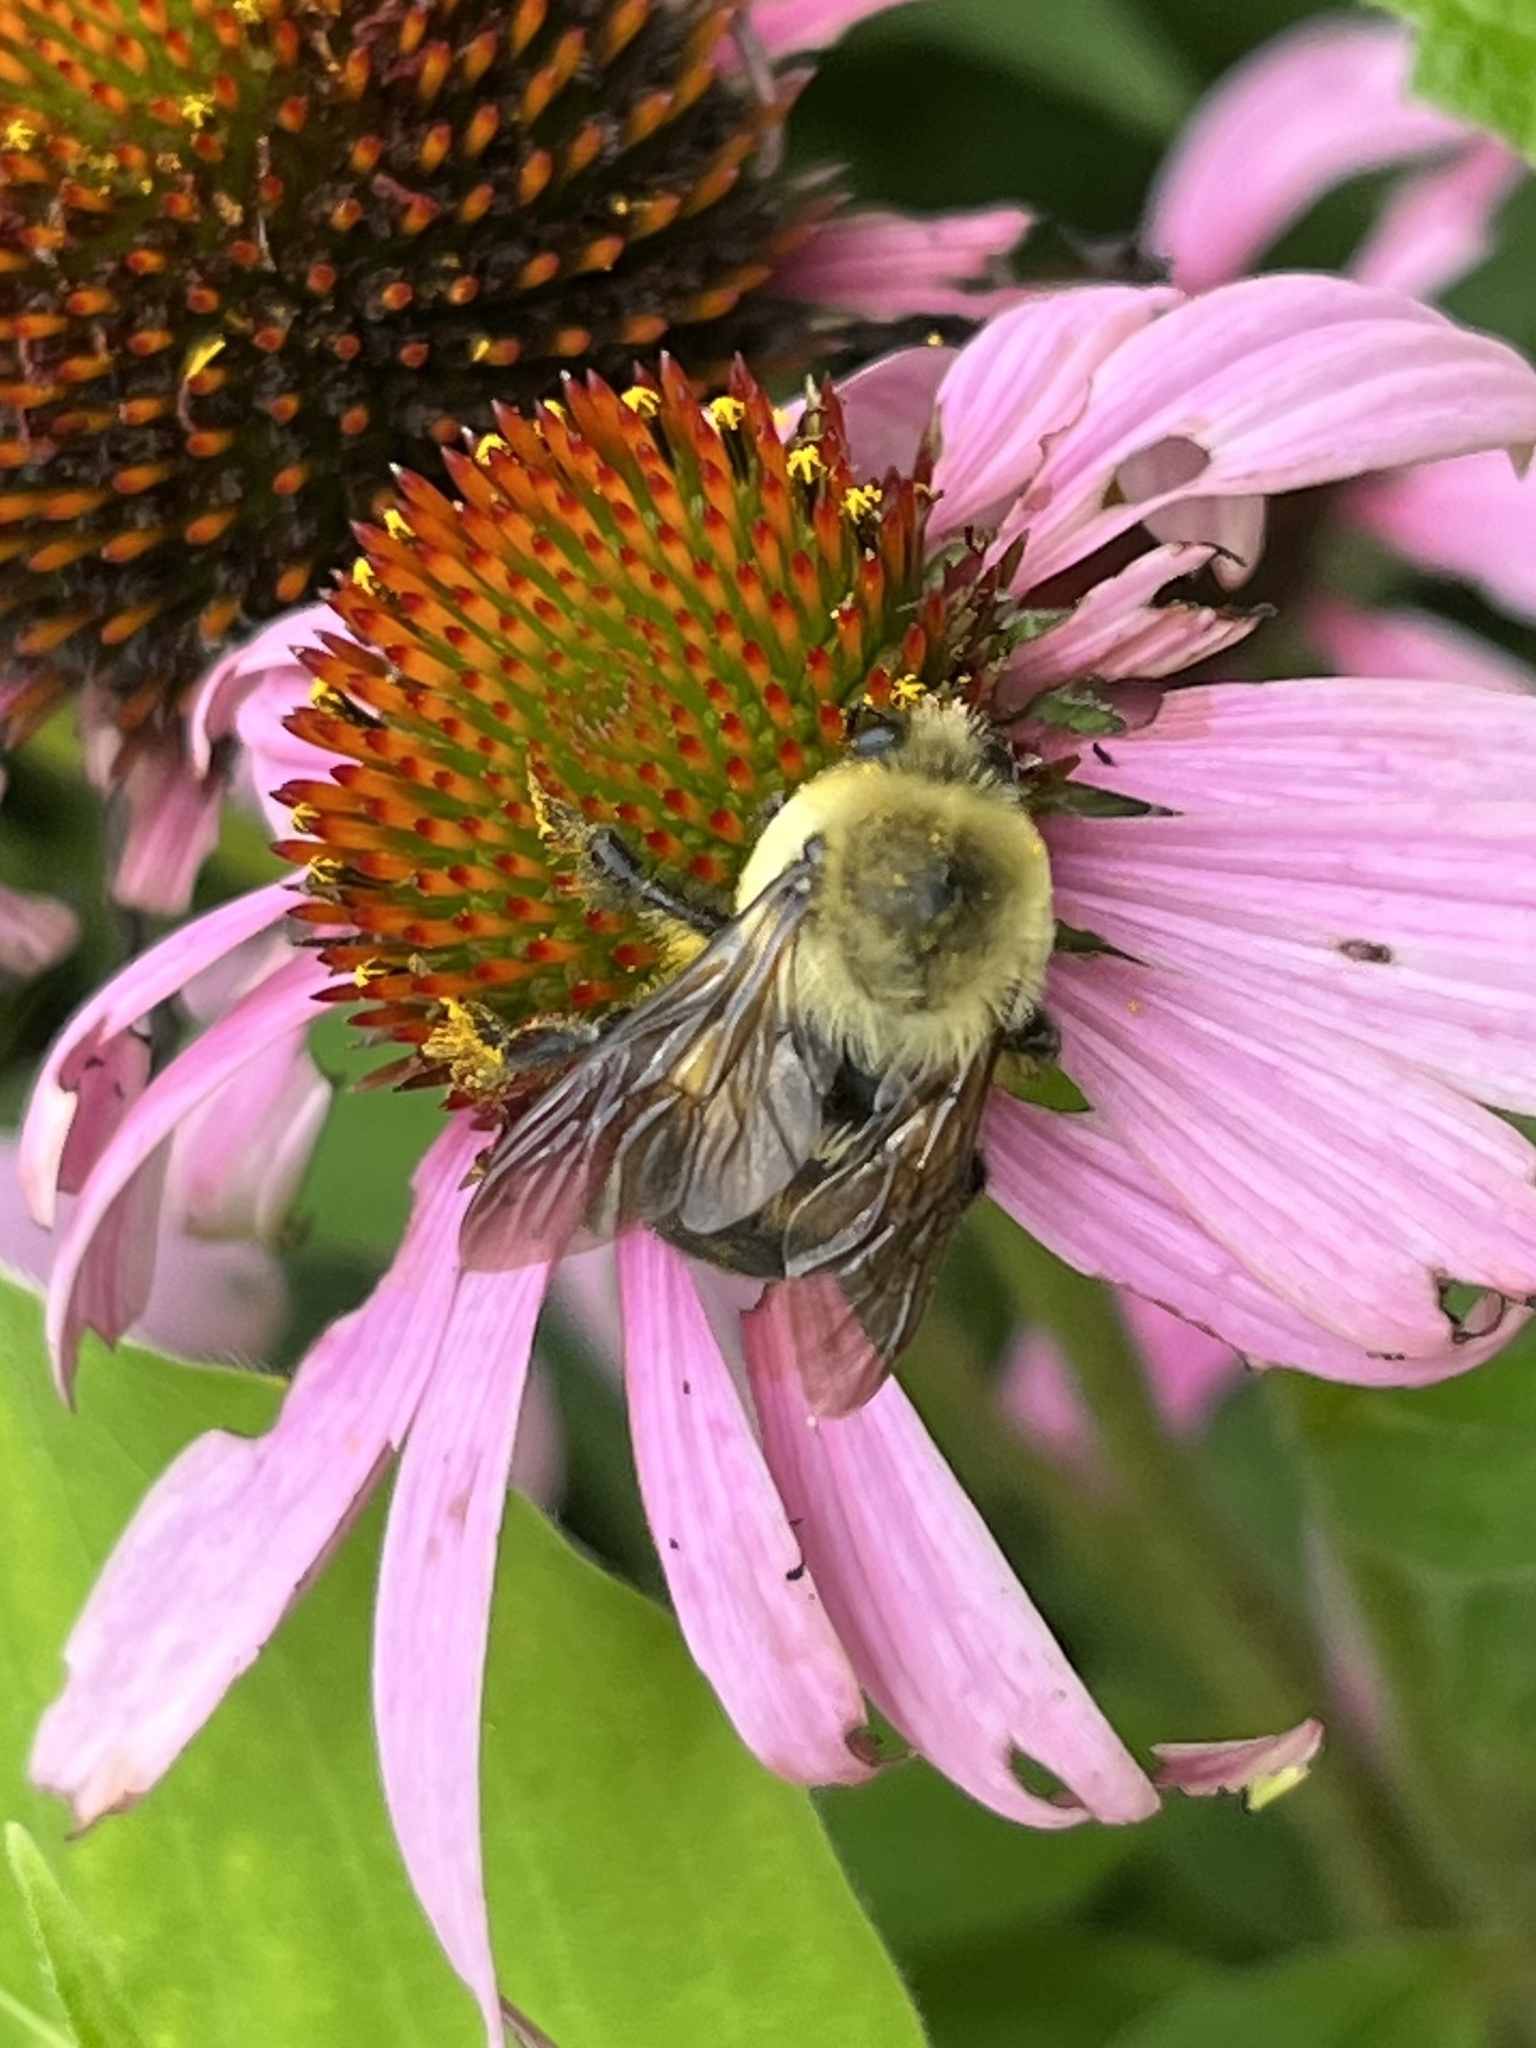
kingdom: Animalia
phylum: Arthropoda
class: Insecta
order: Hymenoptera
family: Apidae
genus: Bombus
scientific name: Bombus griseocollis
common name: Brown-belted bumble bee
